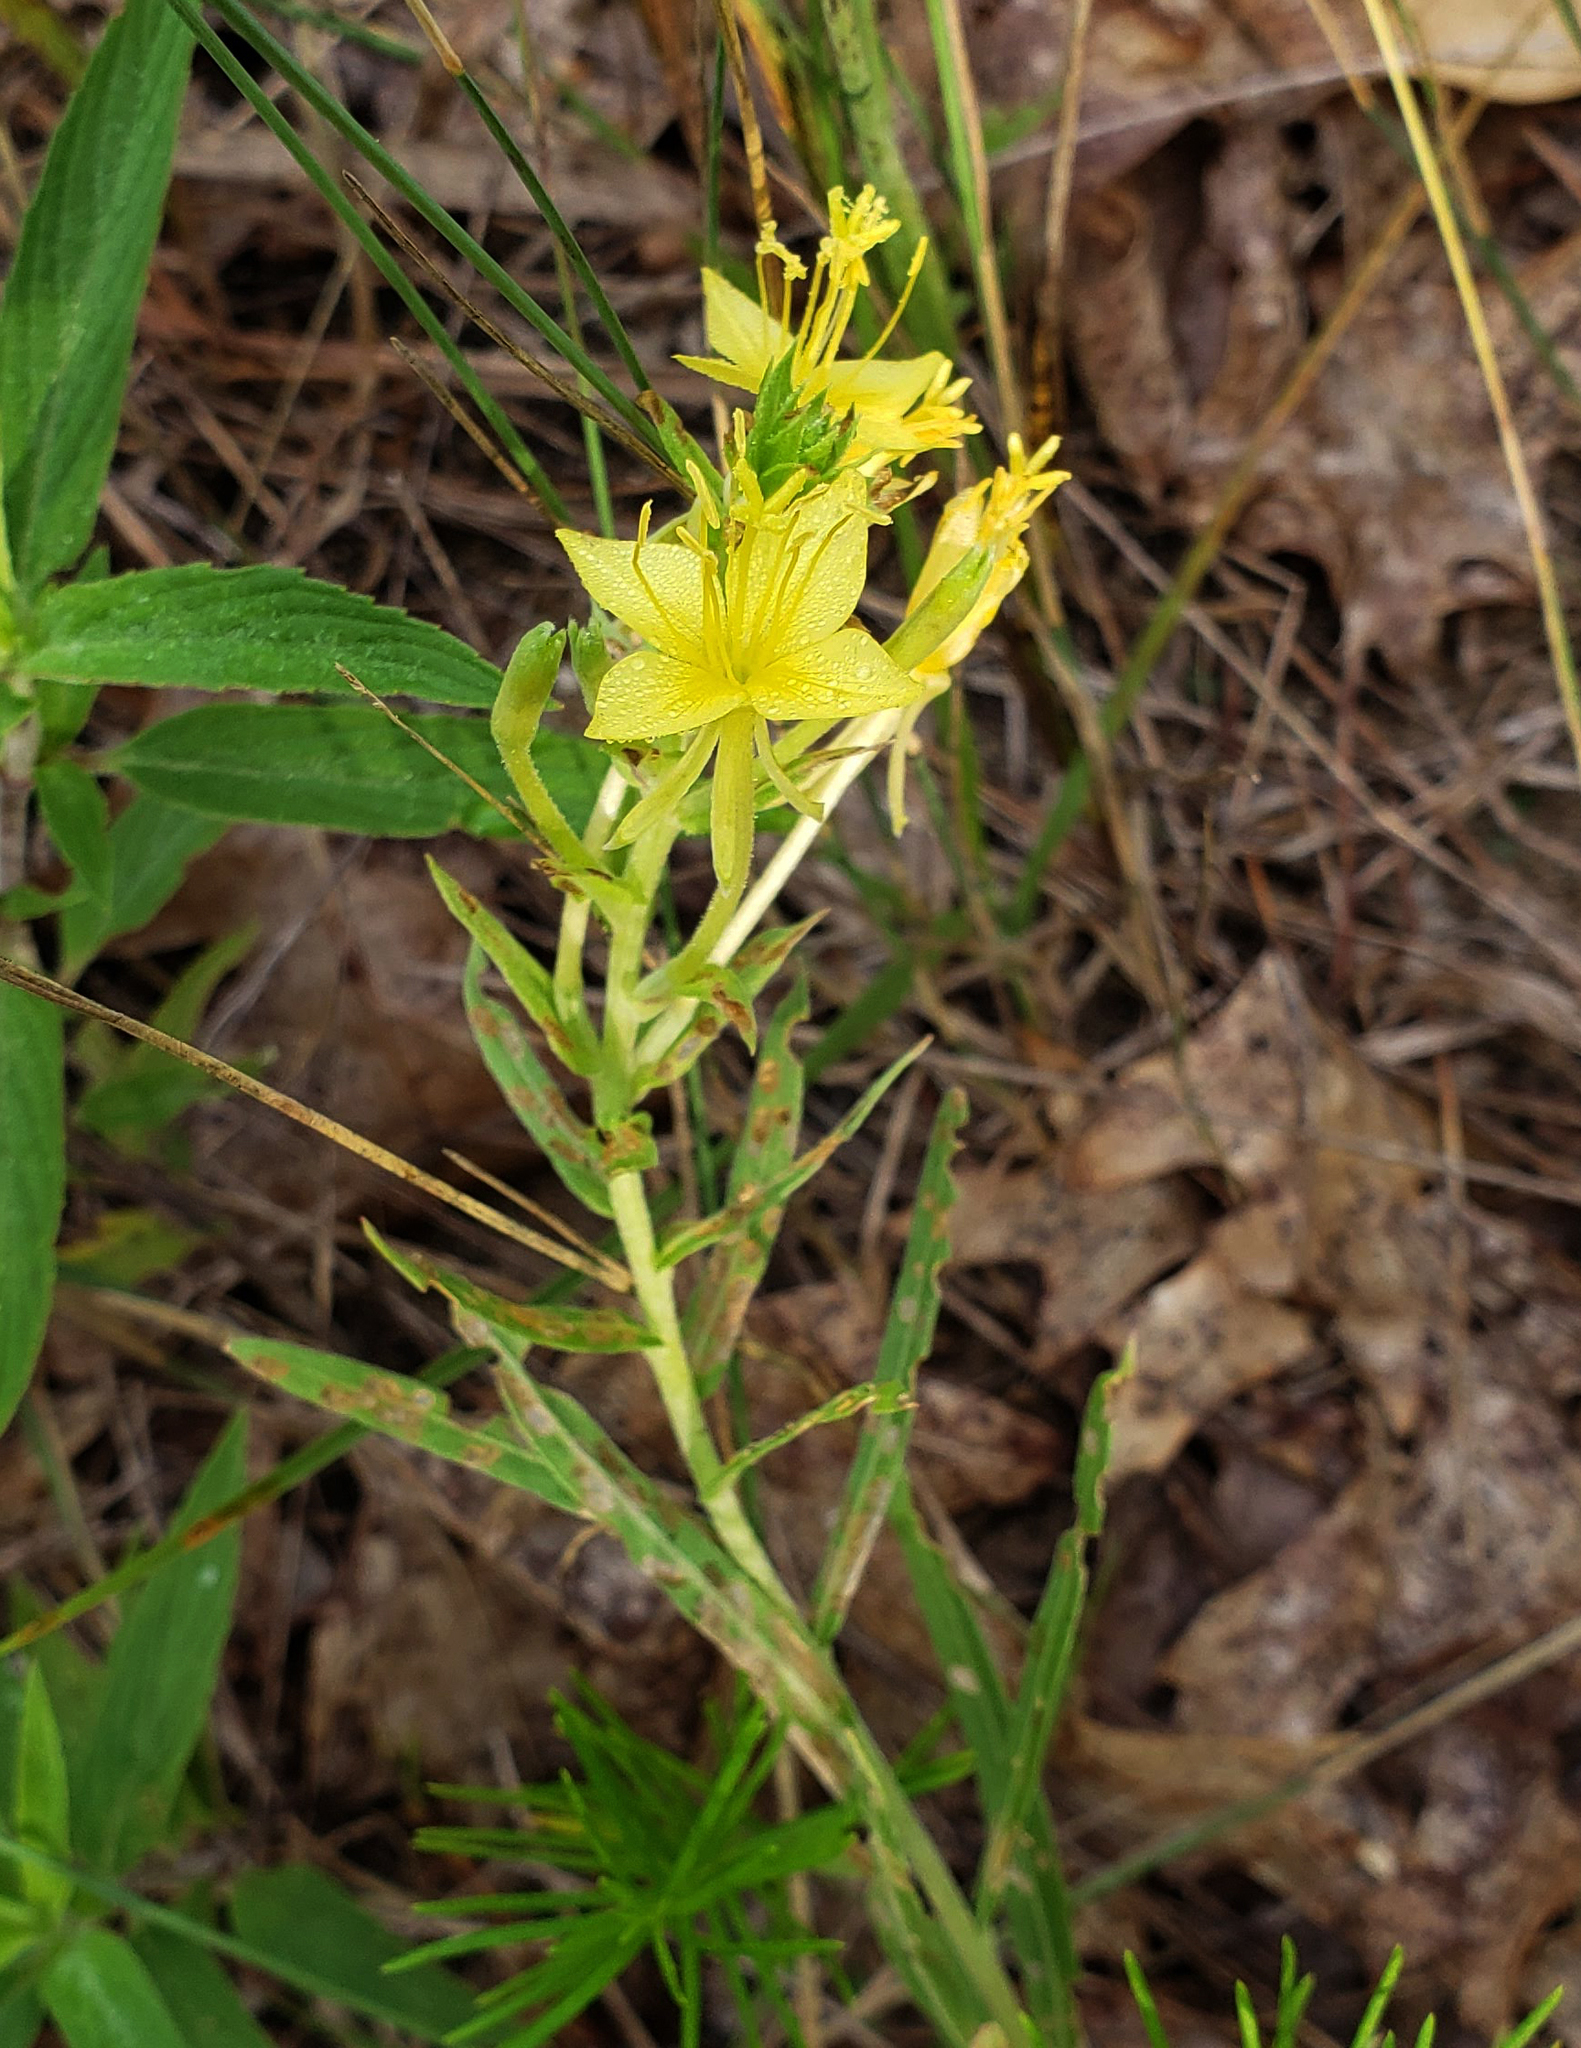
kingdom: Plantae
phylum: Tracheophyta
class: Magnoliopsida
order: Myrtales
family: Onagraceae
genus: Oenothera
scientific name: Oenothera clelandii
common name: Cleland's evening-primrose
